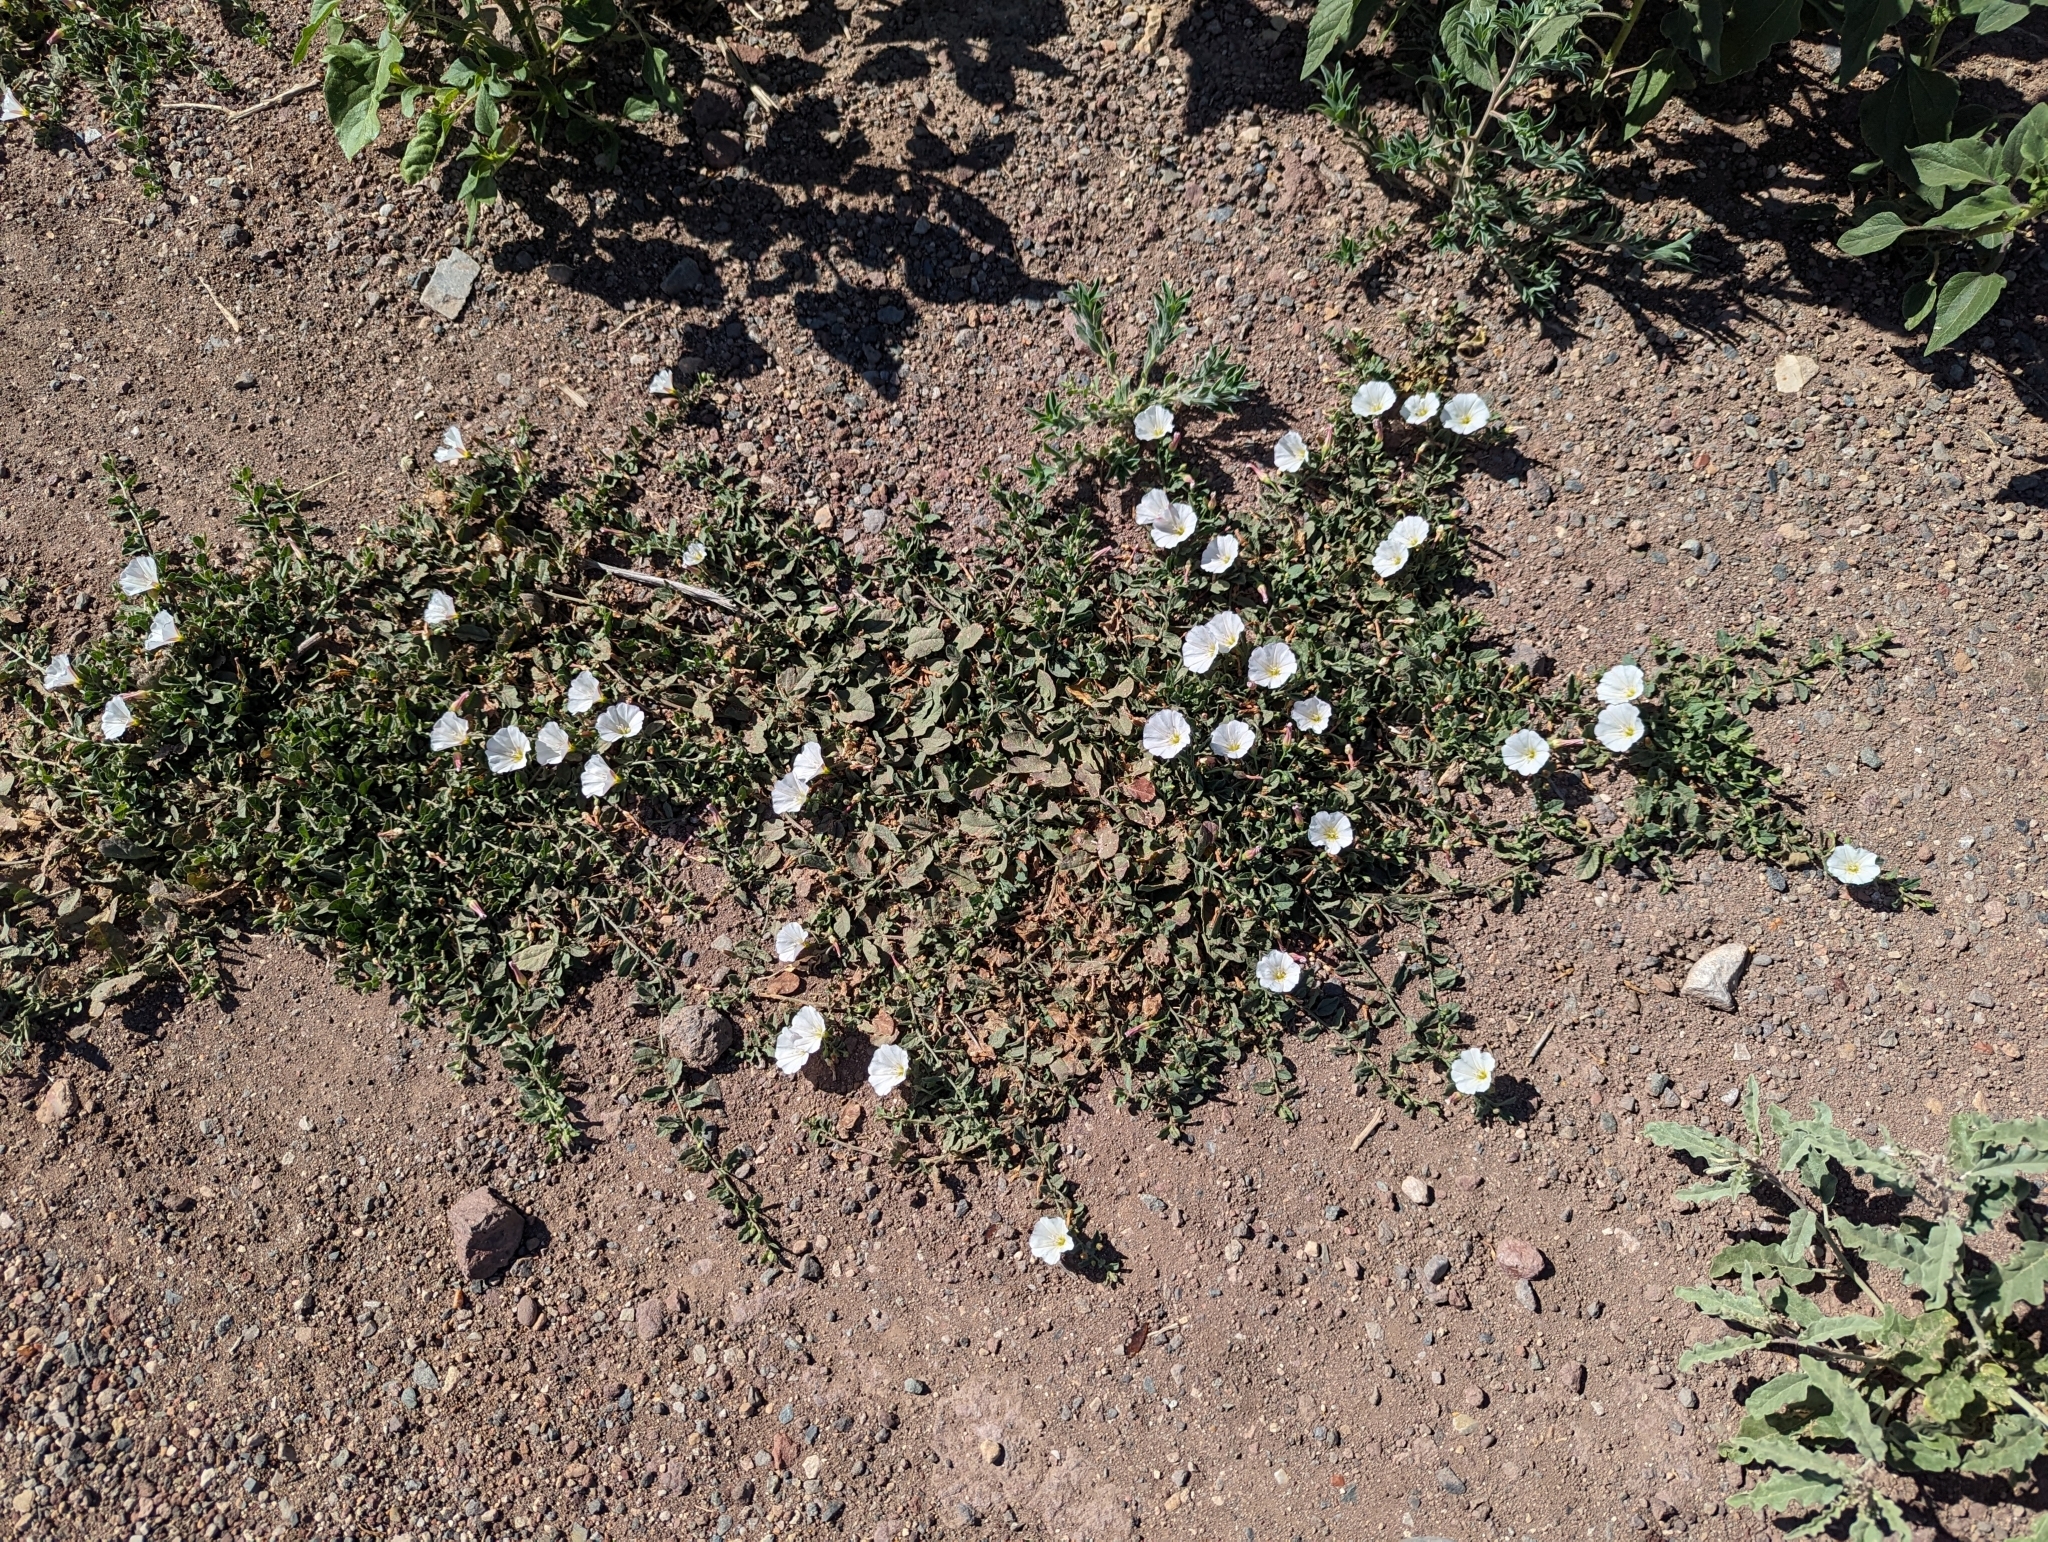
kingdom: Plantae
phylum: Tracheophyta
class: Magnoliopsida
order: Solanales
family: Convolvulaceae
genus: Convolvulus
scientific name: Convolvulus arvensis
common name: Field bindweed
